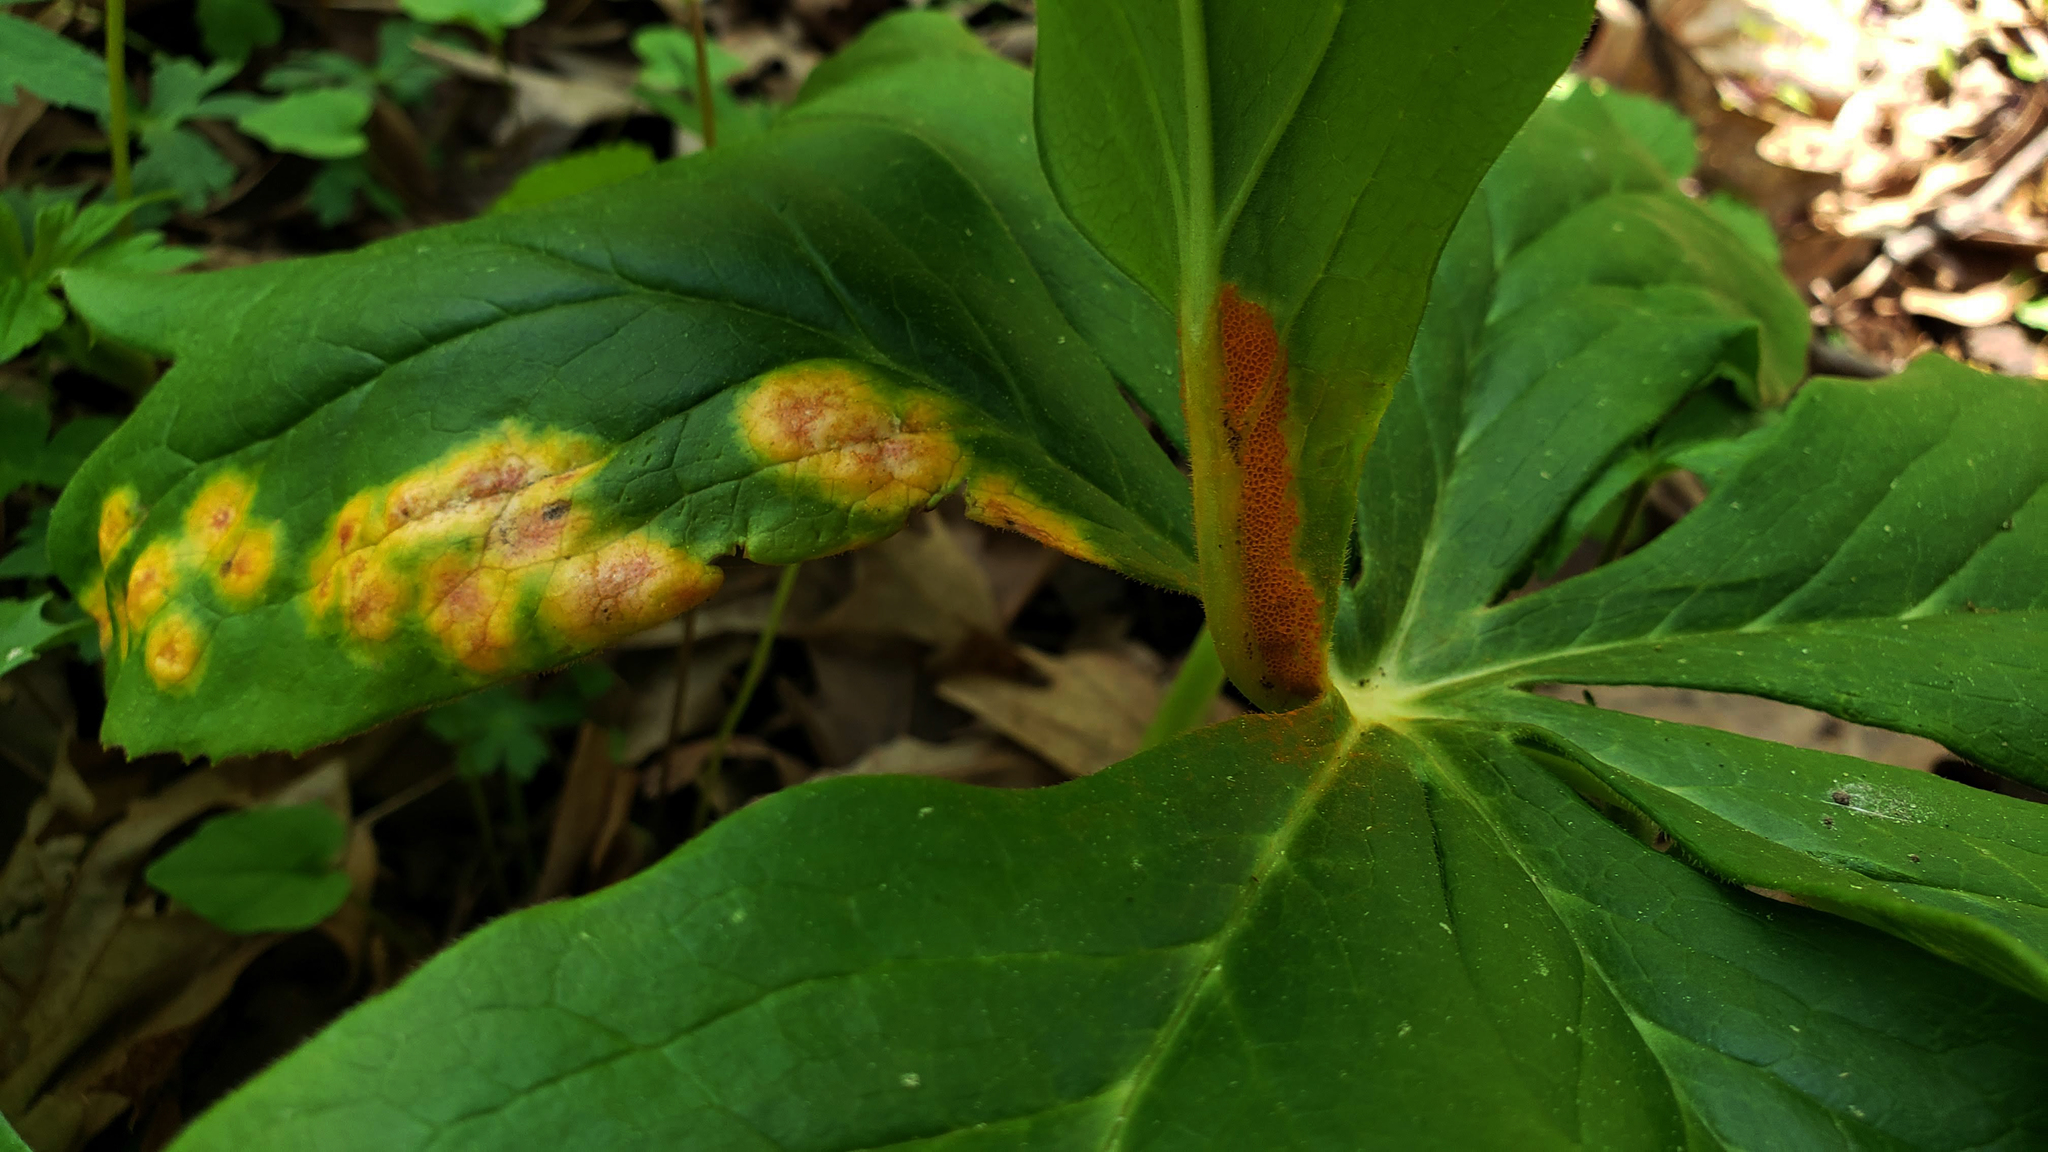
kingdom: Fungi
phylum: Basidiomycota
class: Pucciniomycetes
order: Pucciniales
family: Pucciniaceae
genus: Puccinia
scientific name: Puccinia podophylli
